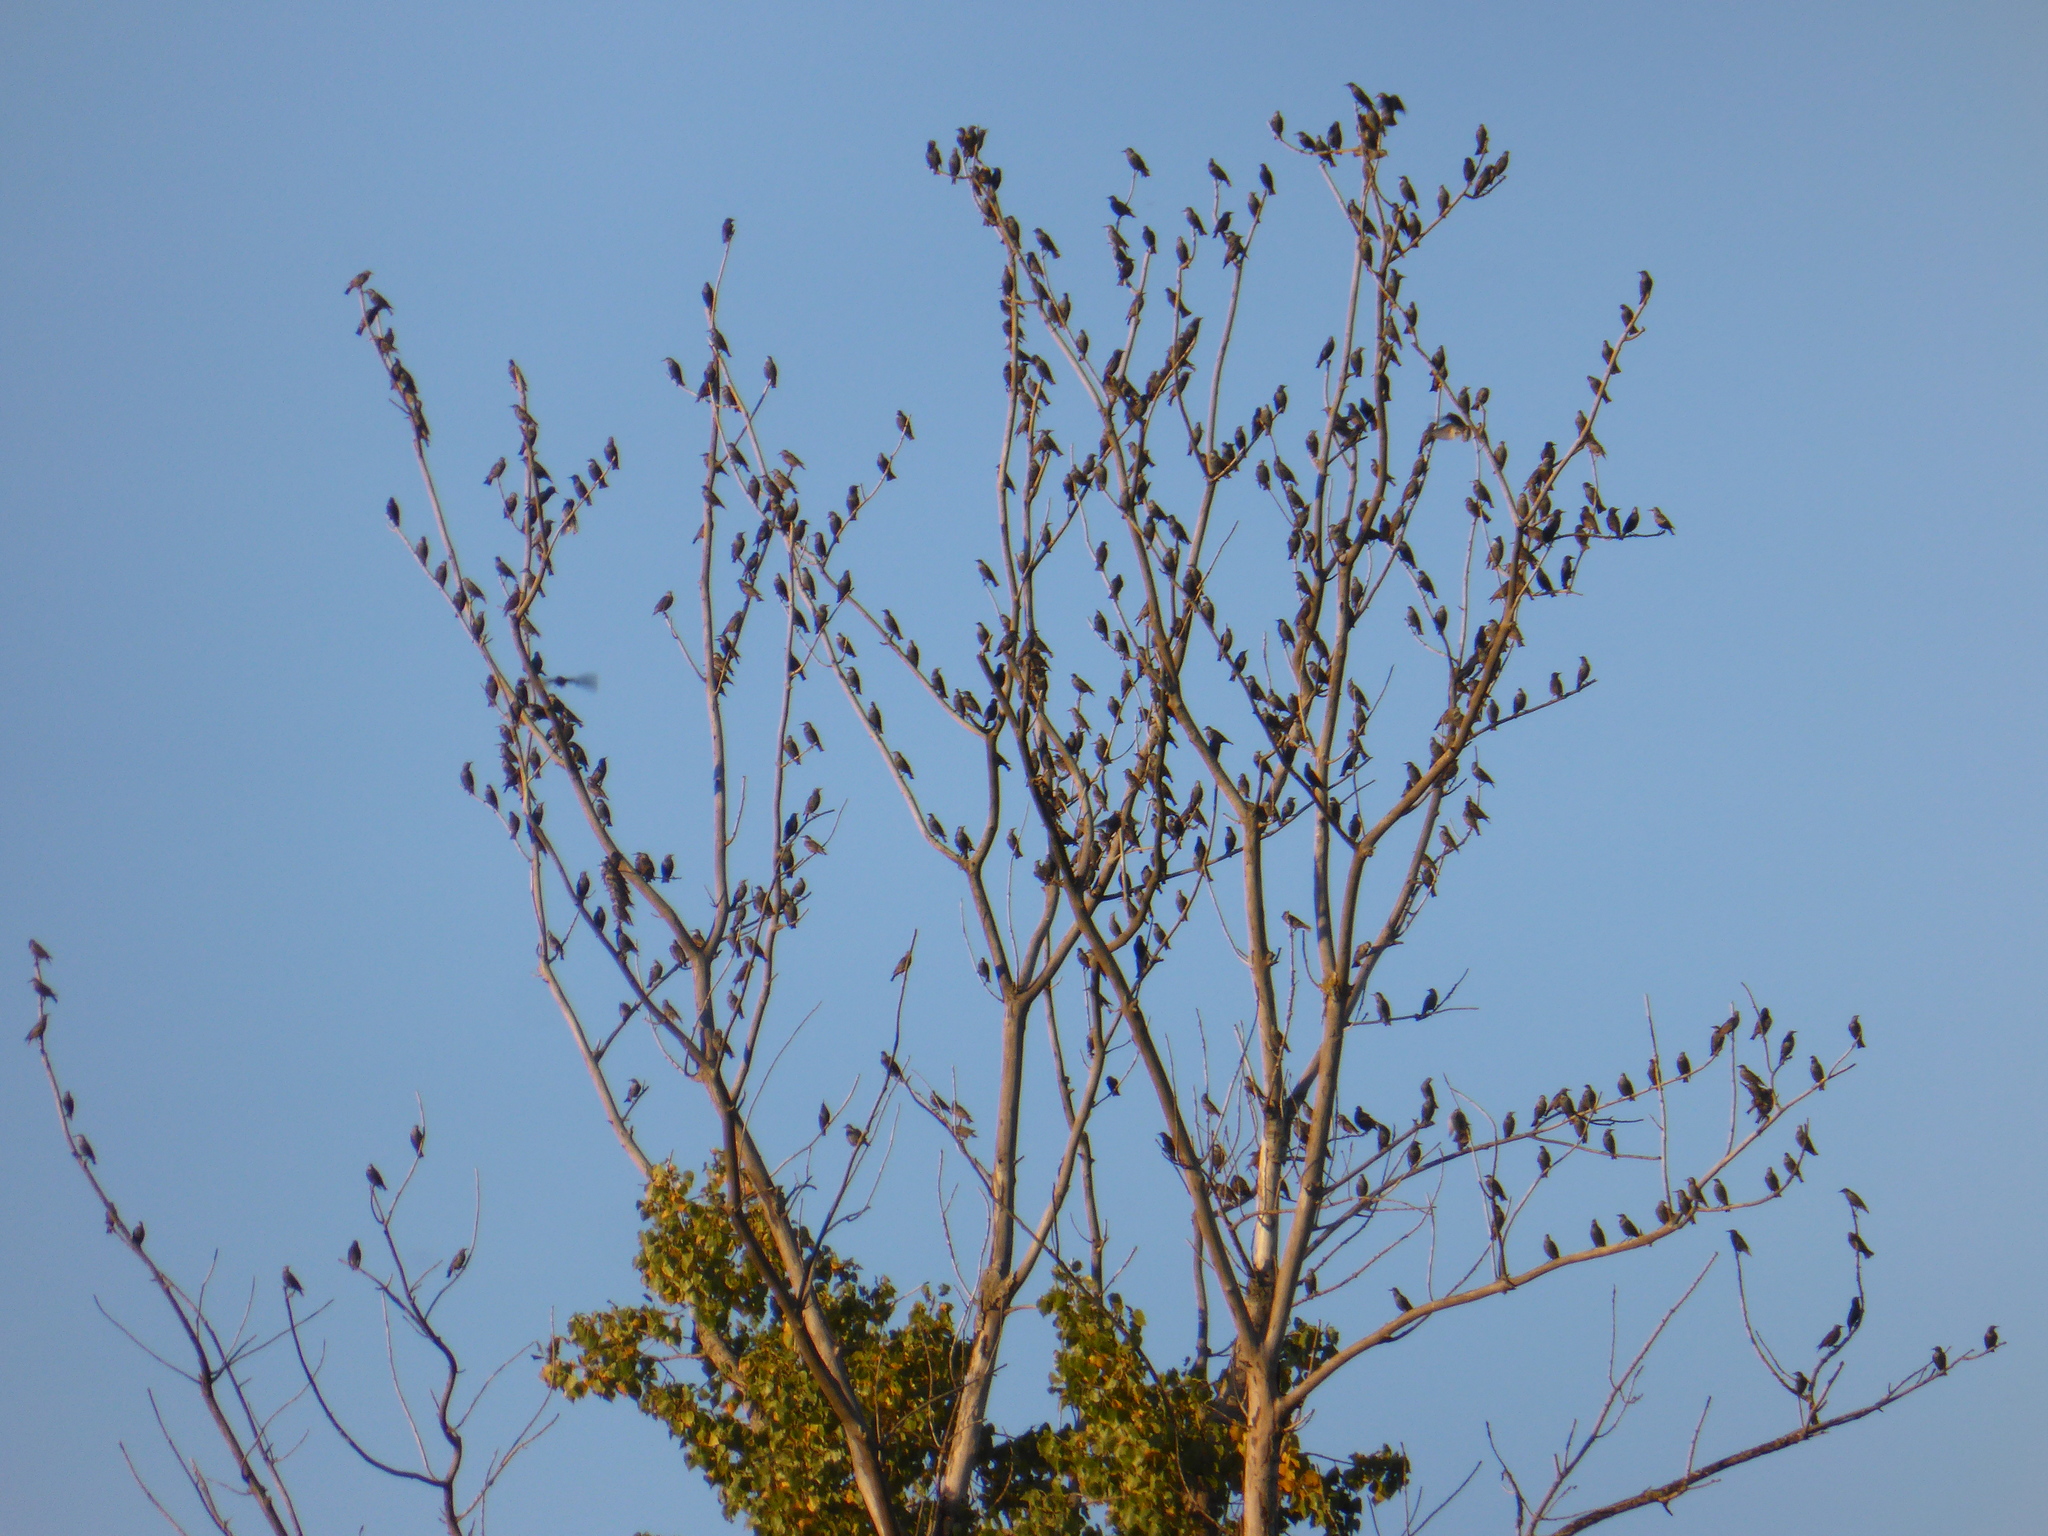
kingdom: Animalia
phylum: Chordata
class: Aves
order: Passeriformes
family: Sturnidae
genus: Sturnus
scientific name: Sturnus vulgaris
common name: Common starling
